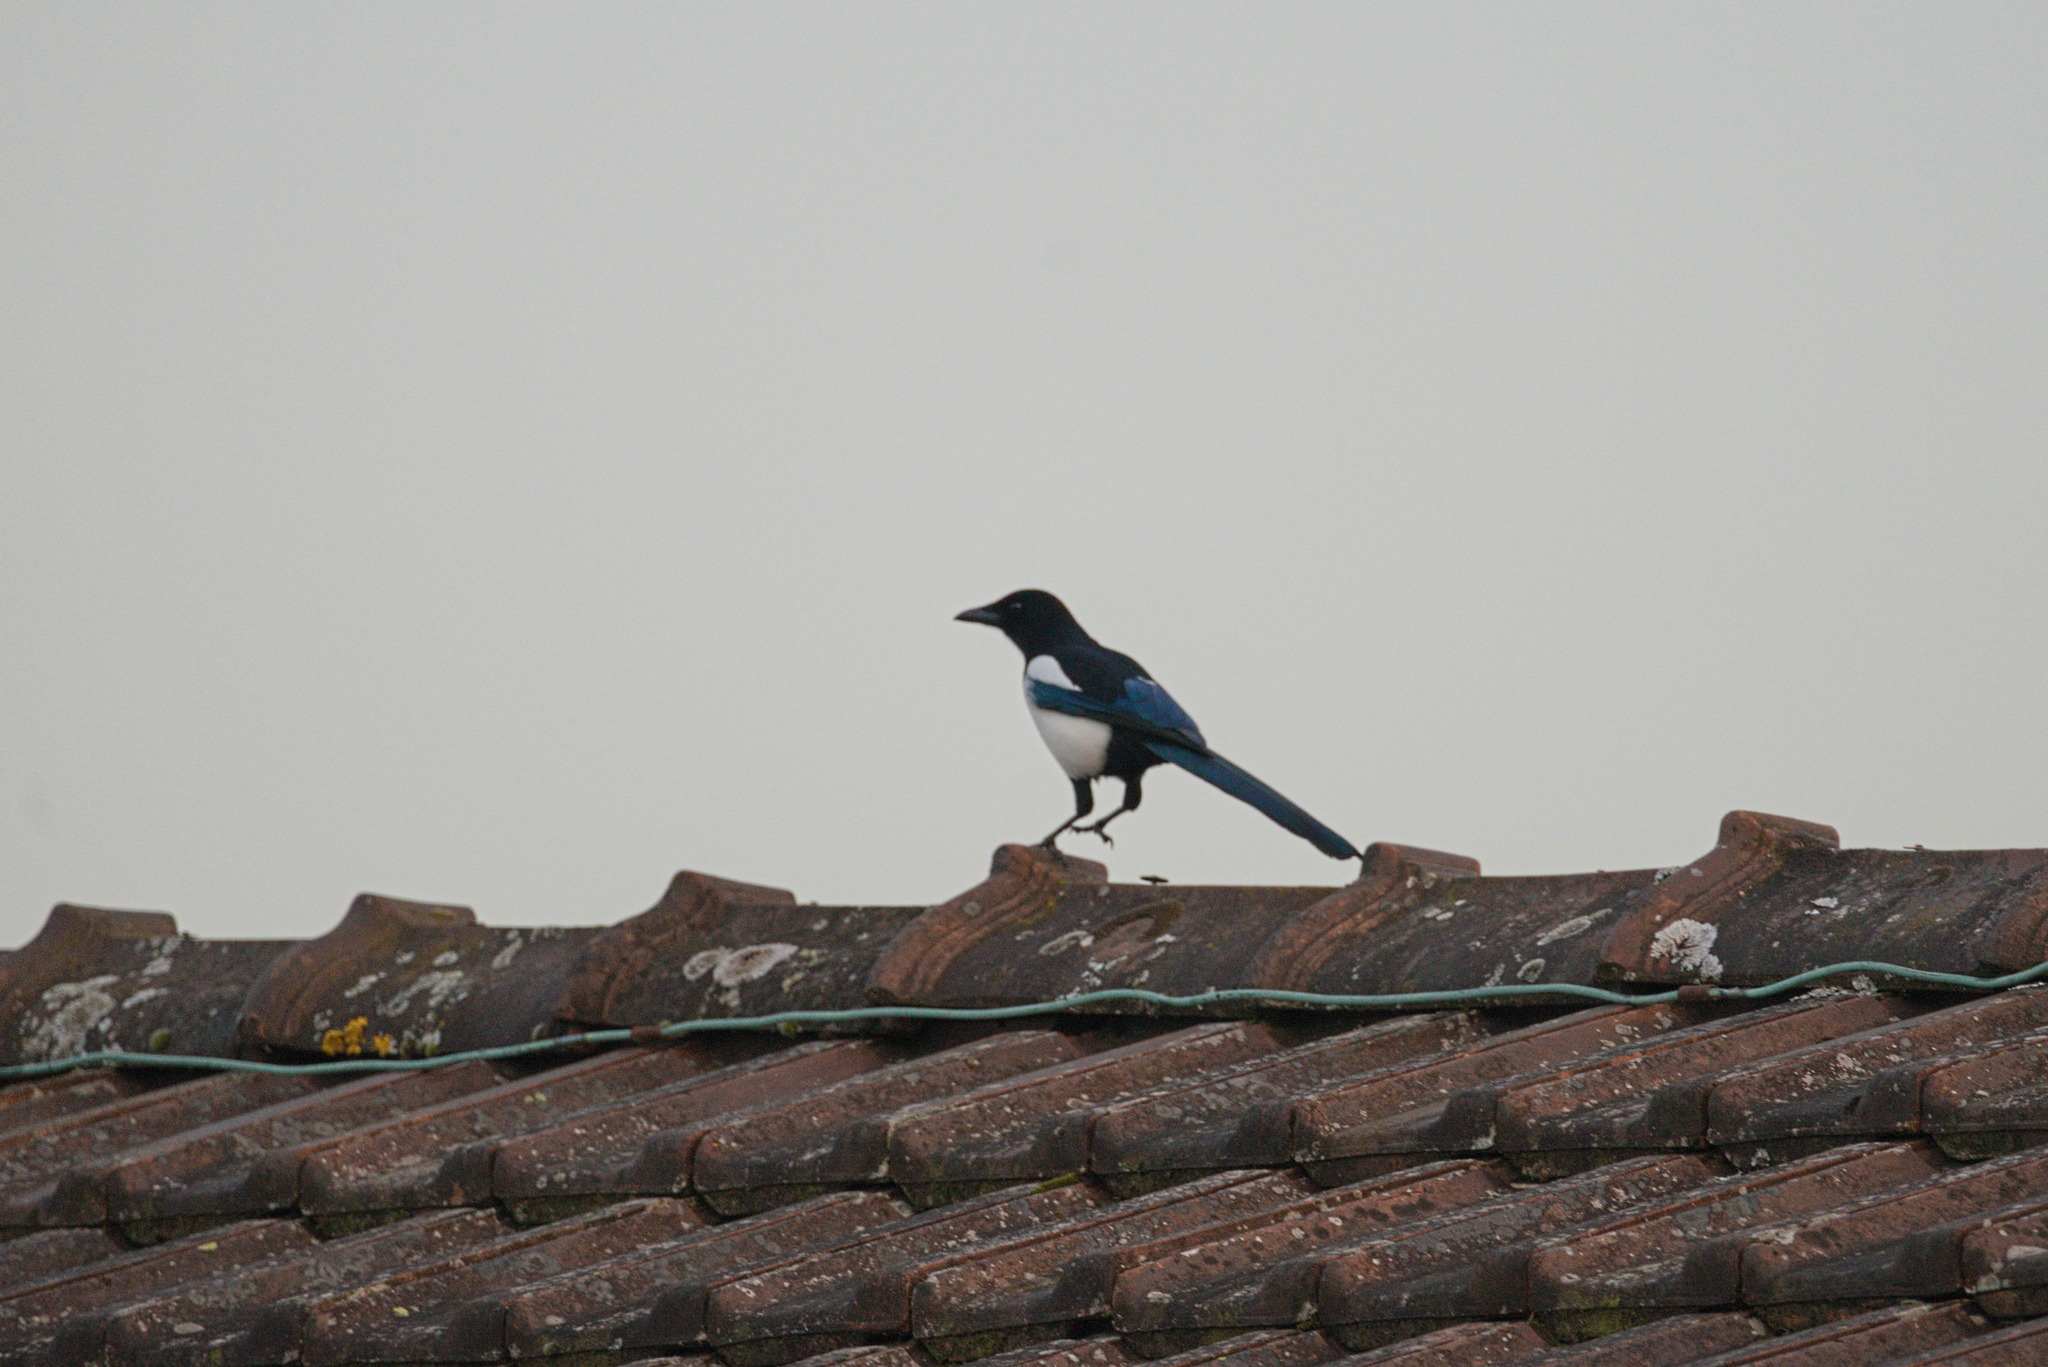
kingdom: Animalia
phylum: Chordata
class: Aves
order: Passeriformes
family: Corvidae
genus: Pica
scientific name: Pica pica
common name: Eurasian magpie
